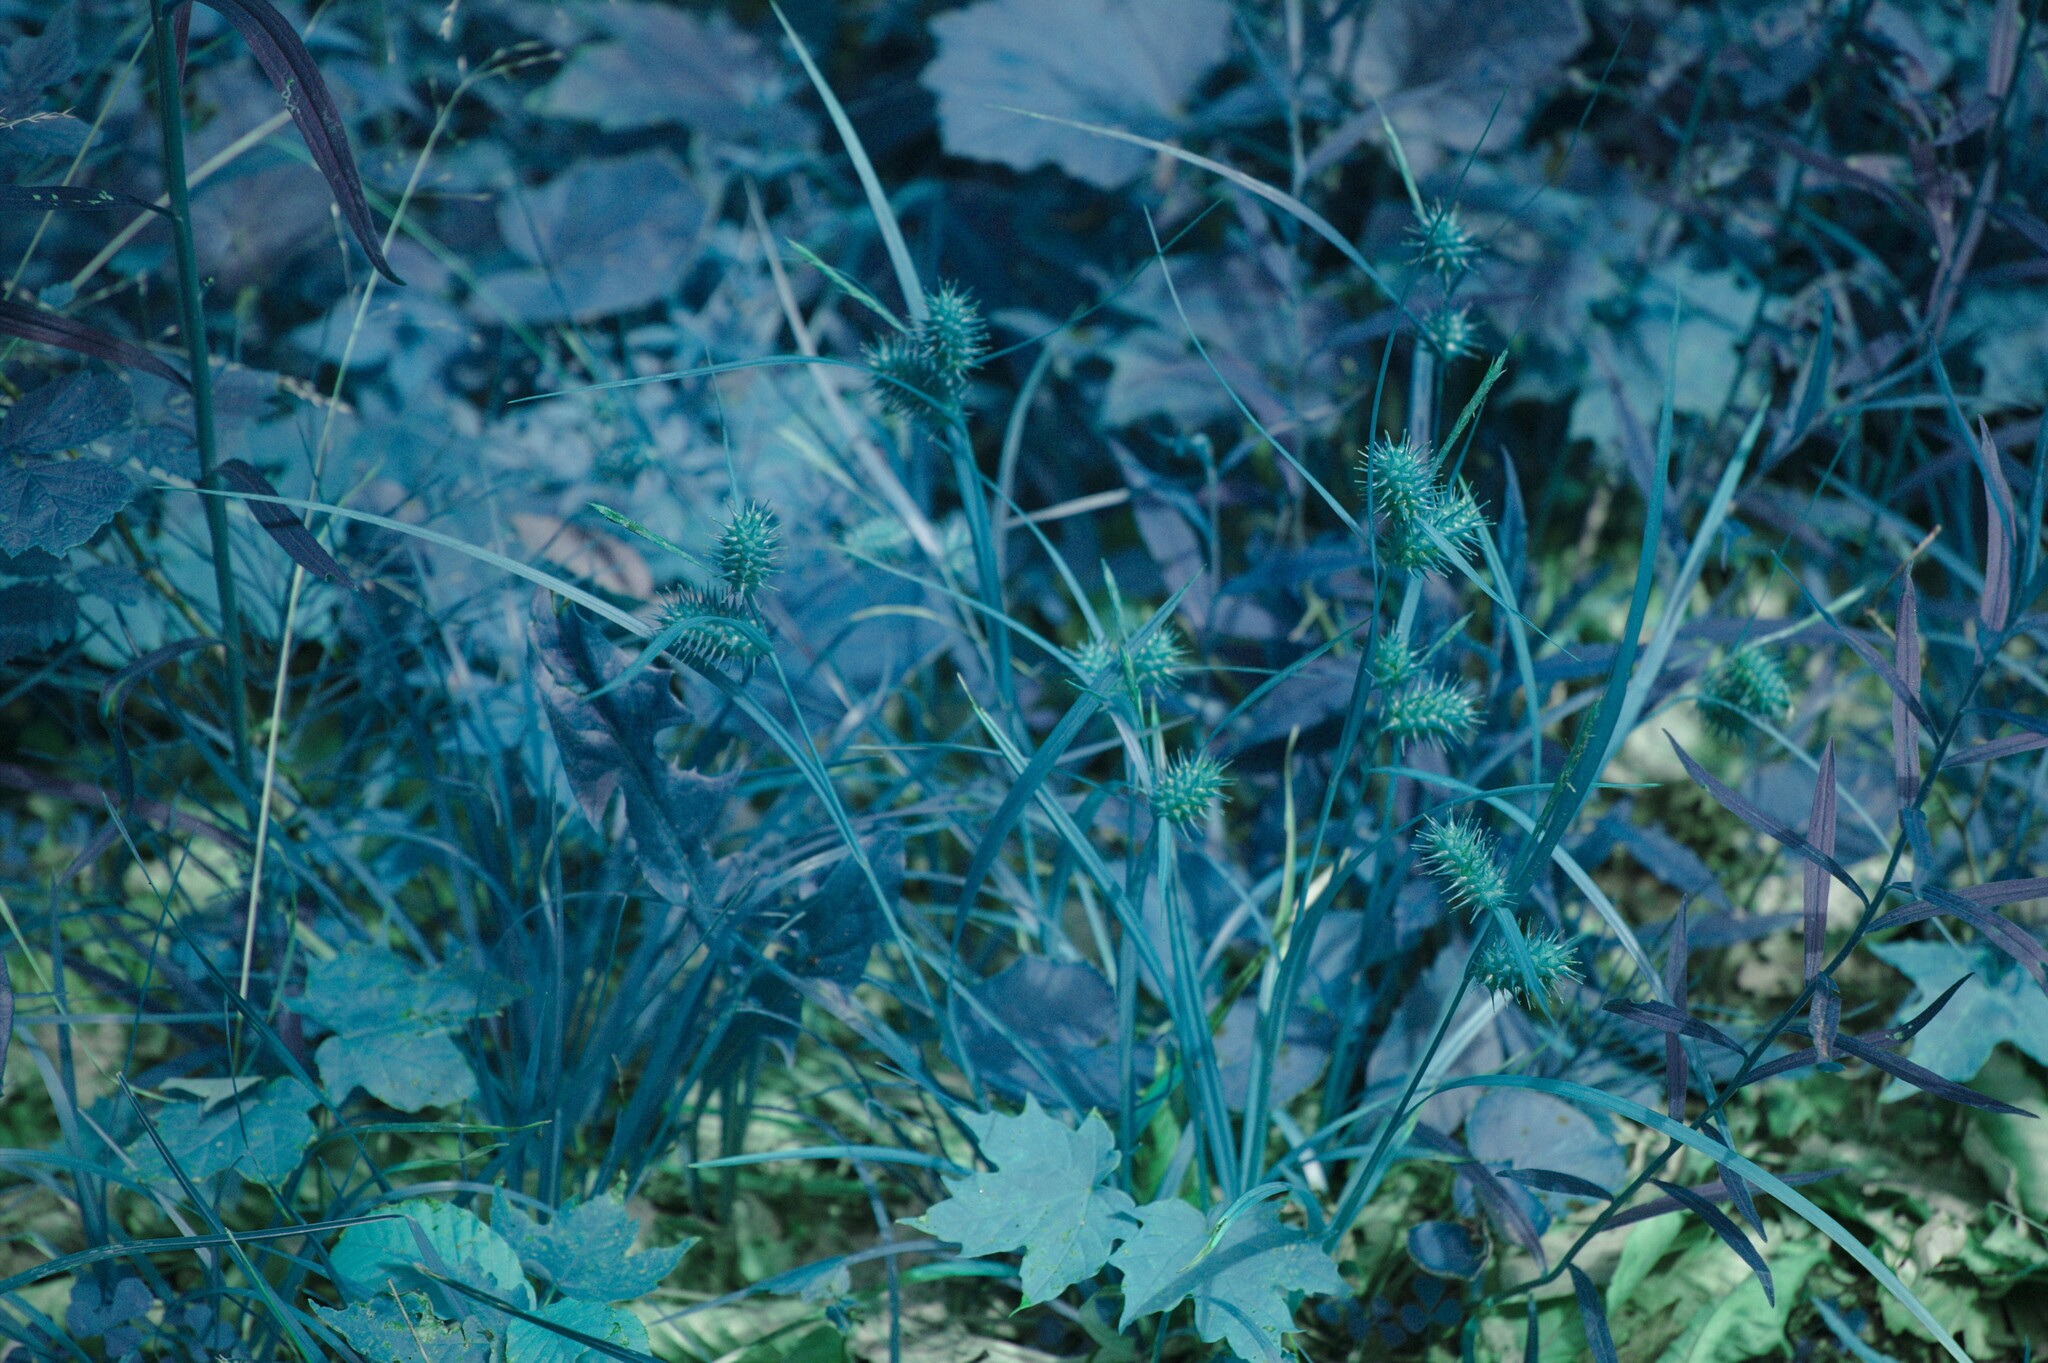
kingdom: Plantae
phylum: Tracheophyta
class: Liliopsida
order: Poales
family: Cyperaceae
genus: Carex
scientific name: Carex lurida
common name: Sallow sedge
